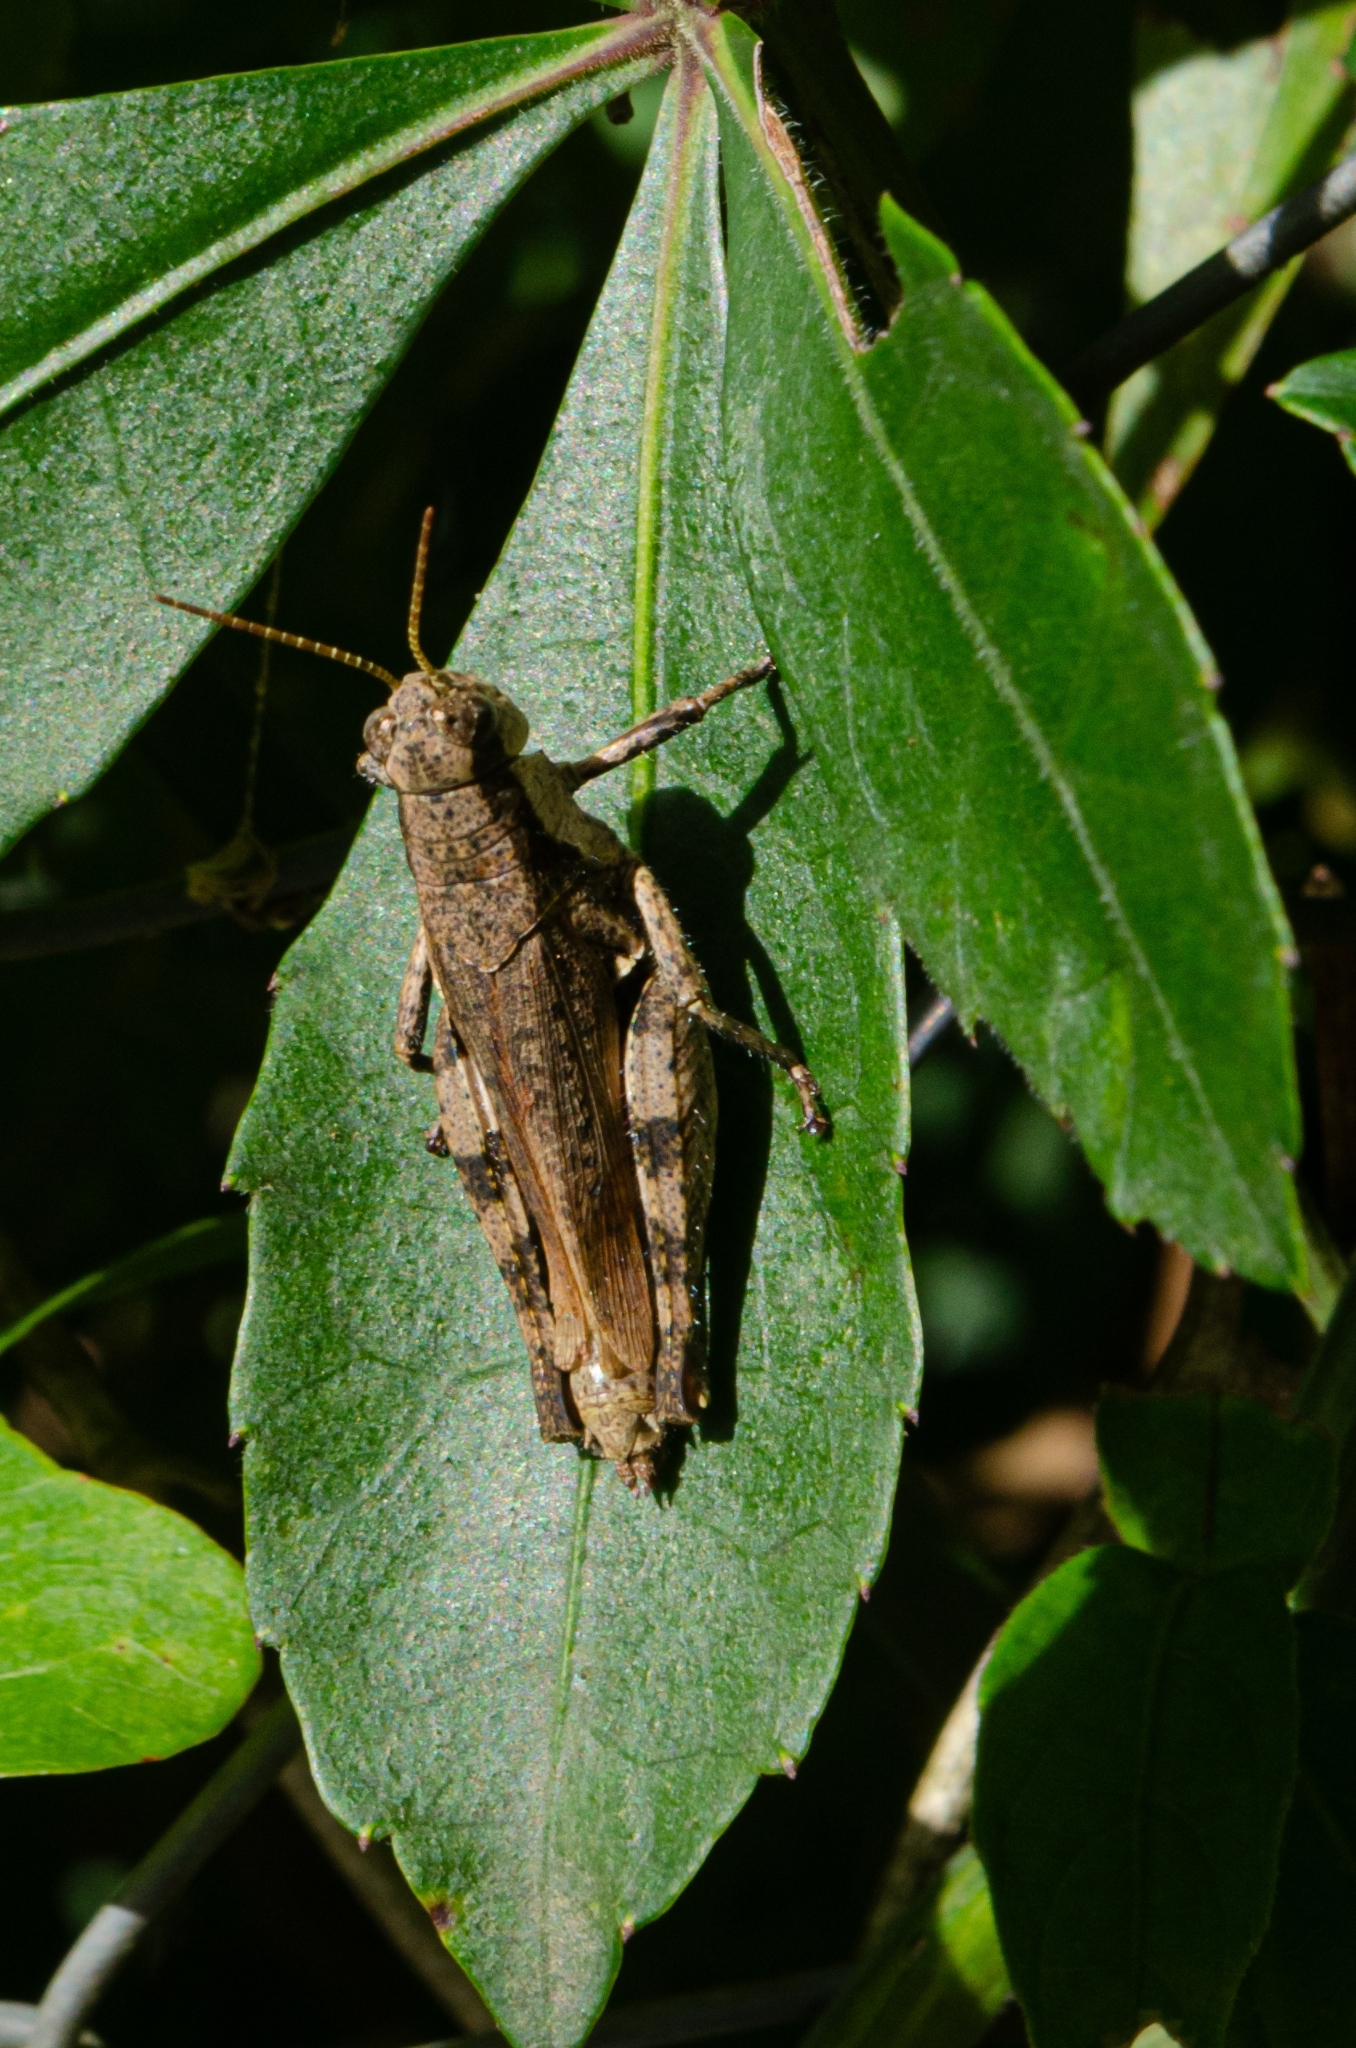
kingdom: Animalia
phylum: Arthropoda
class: Insecta
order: Orthoptera
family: Acrididae
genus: Ronderosia
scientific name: Ronderosia bergii
